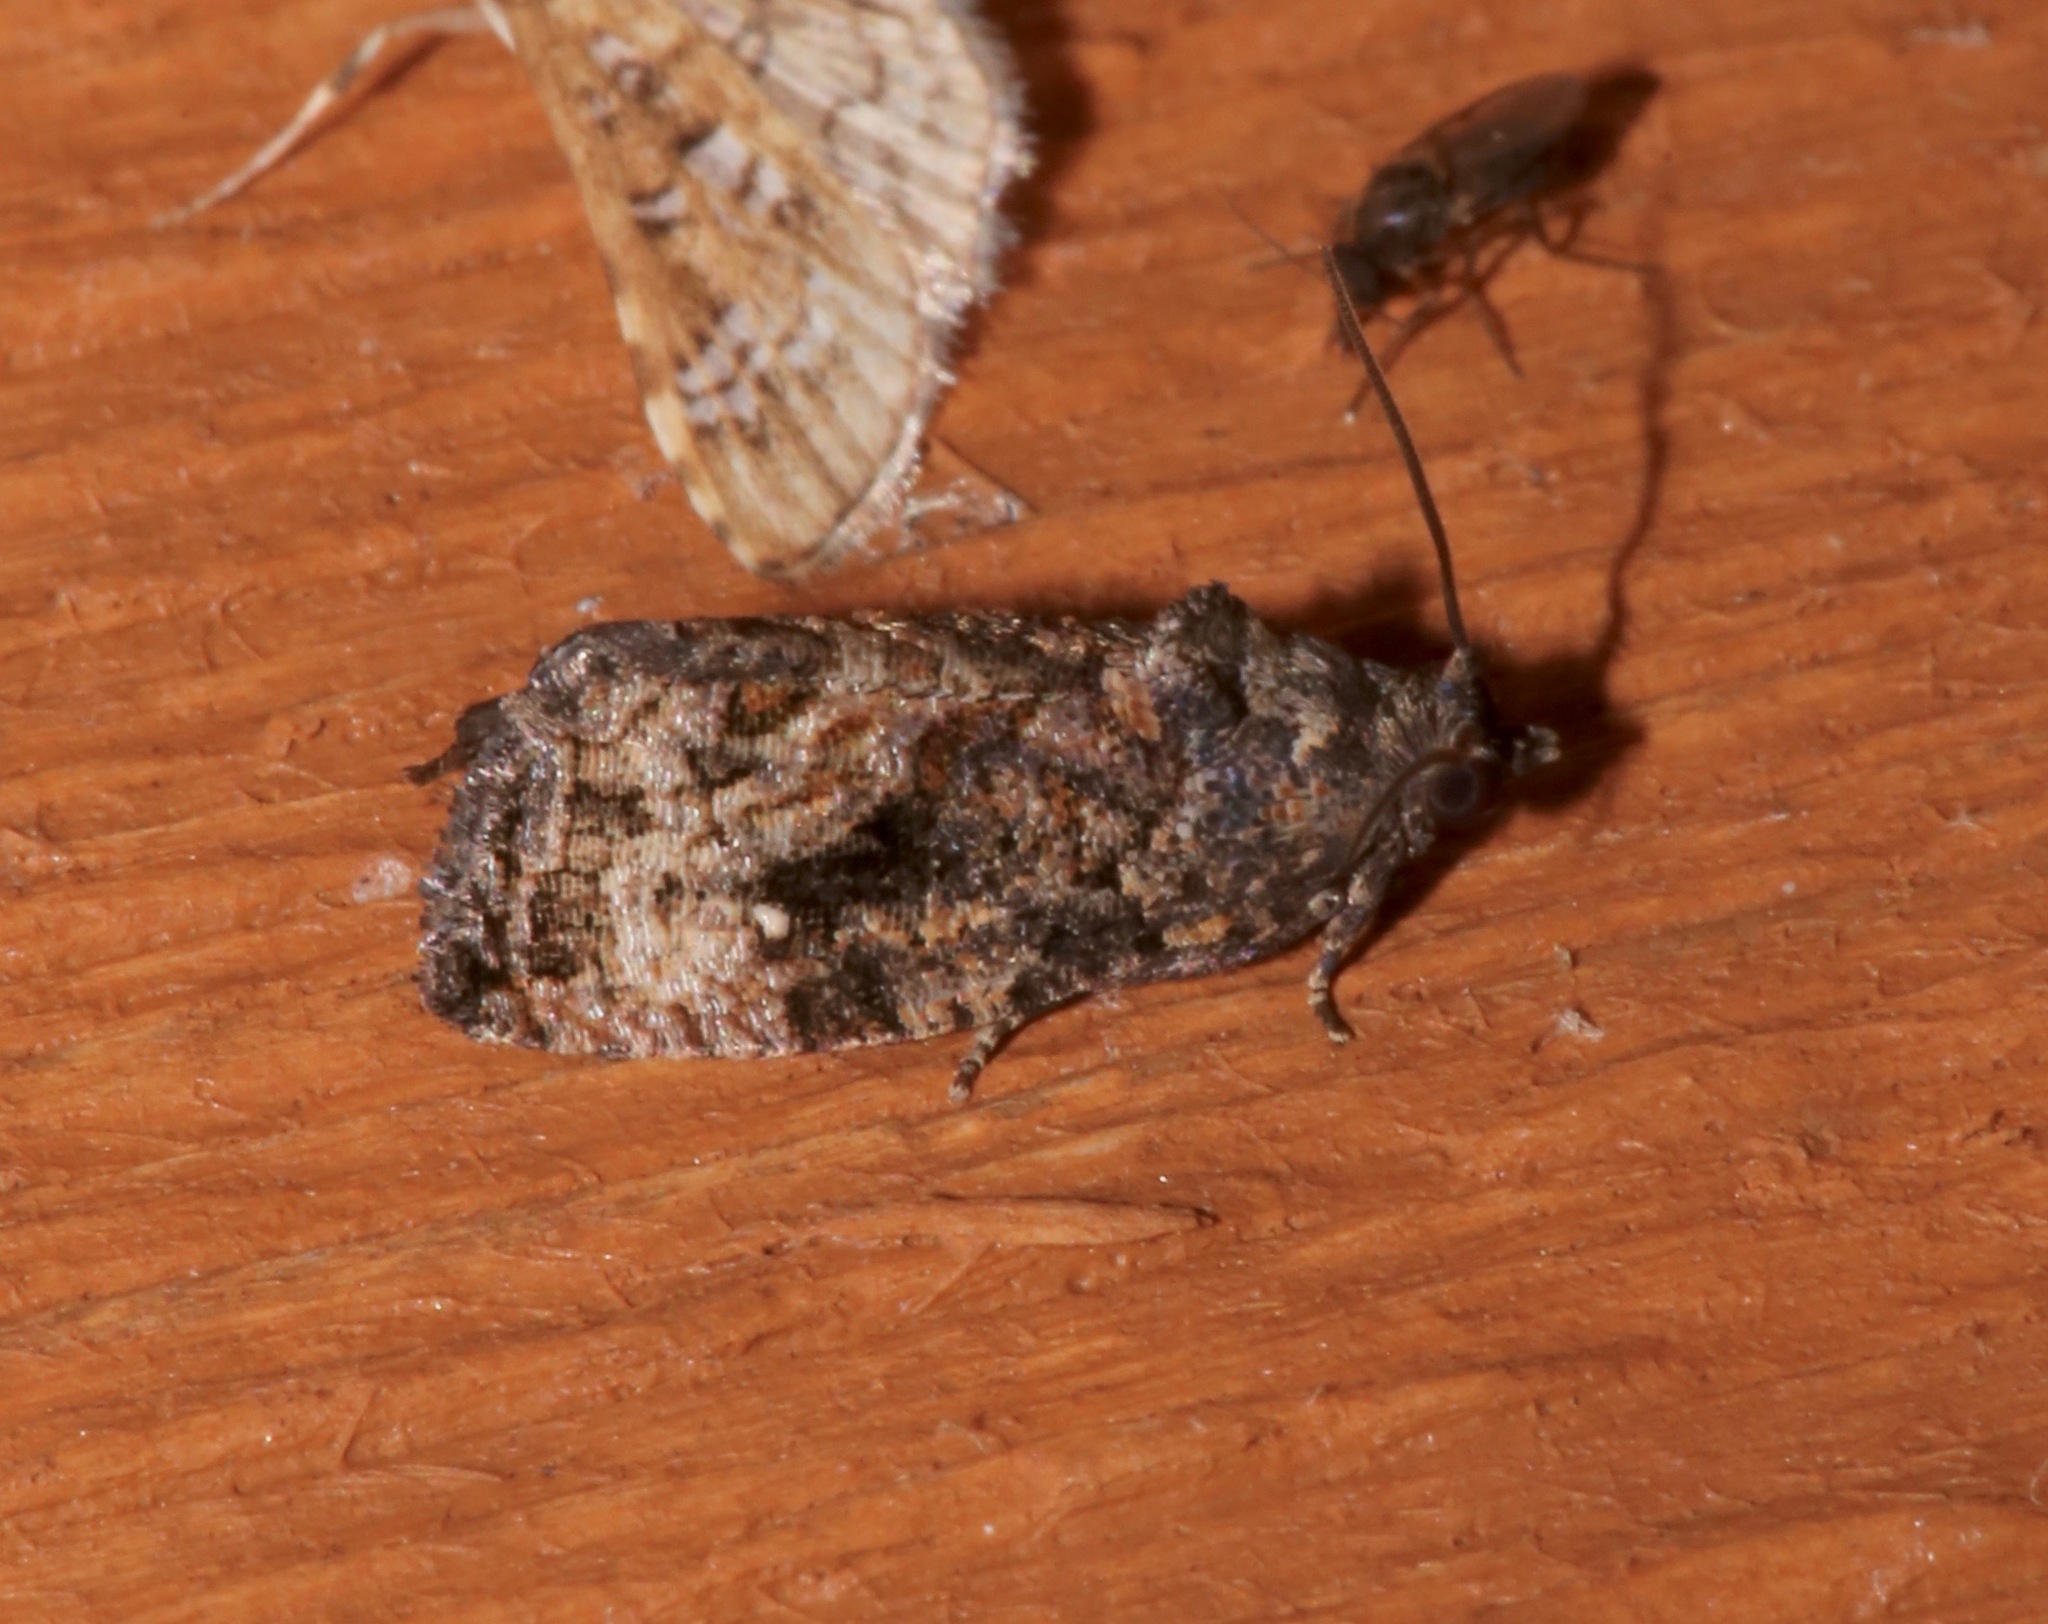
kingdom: Animalia
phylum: Arthropoda
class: Insecta
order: Lepidoptera
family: Tortricidae
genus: Gymnandrosoma
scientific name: Gymnandrosoma punctidiscanum
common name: Dotted ecdytolopha moth
